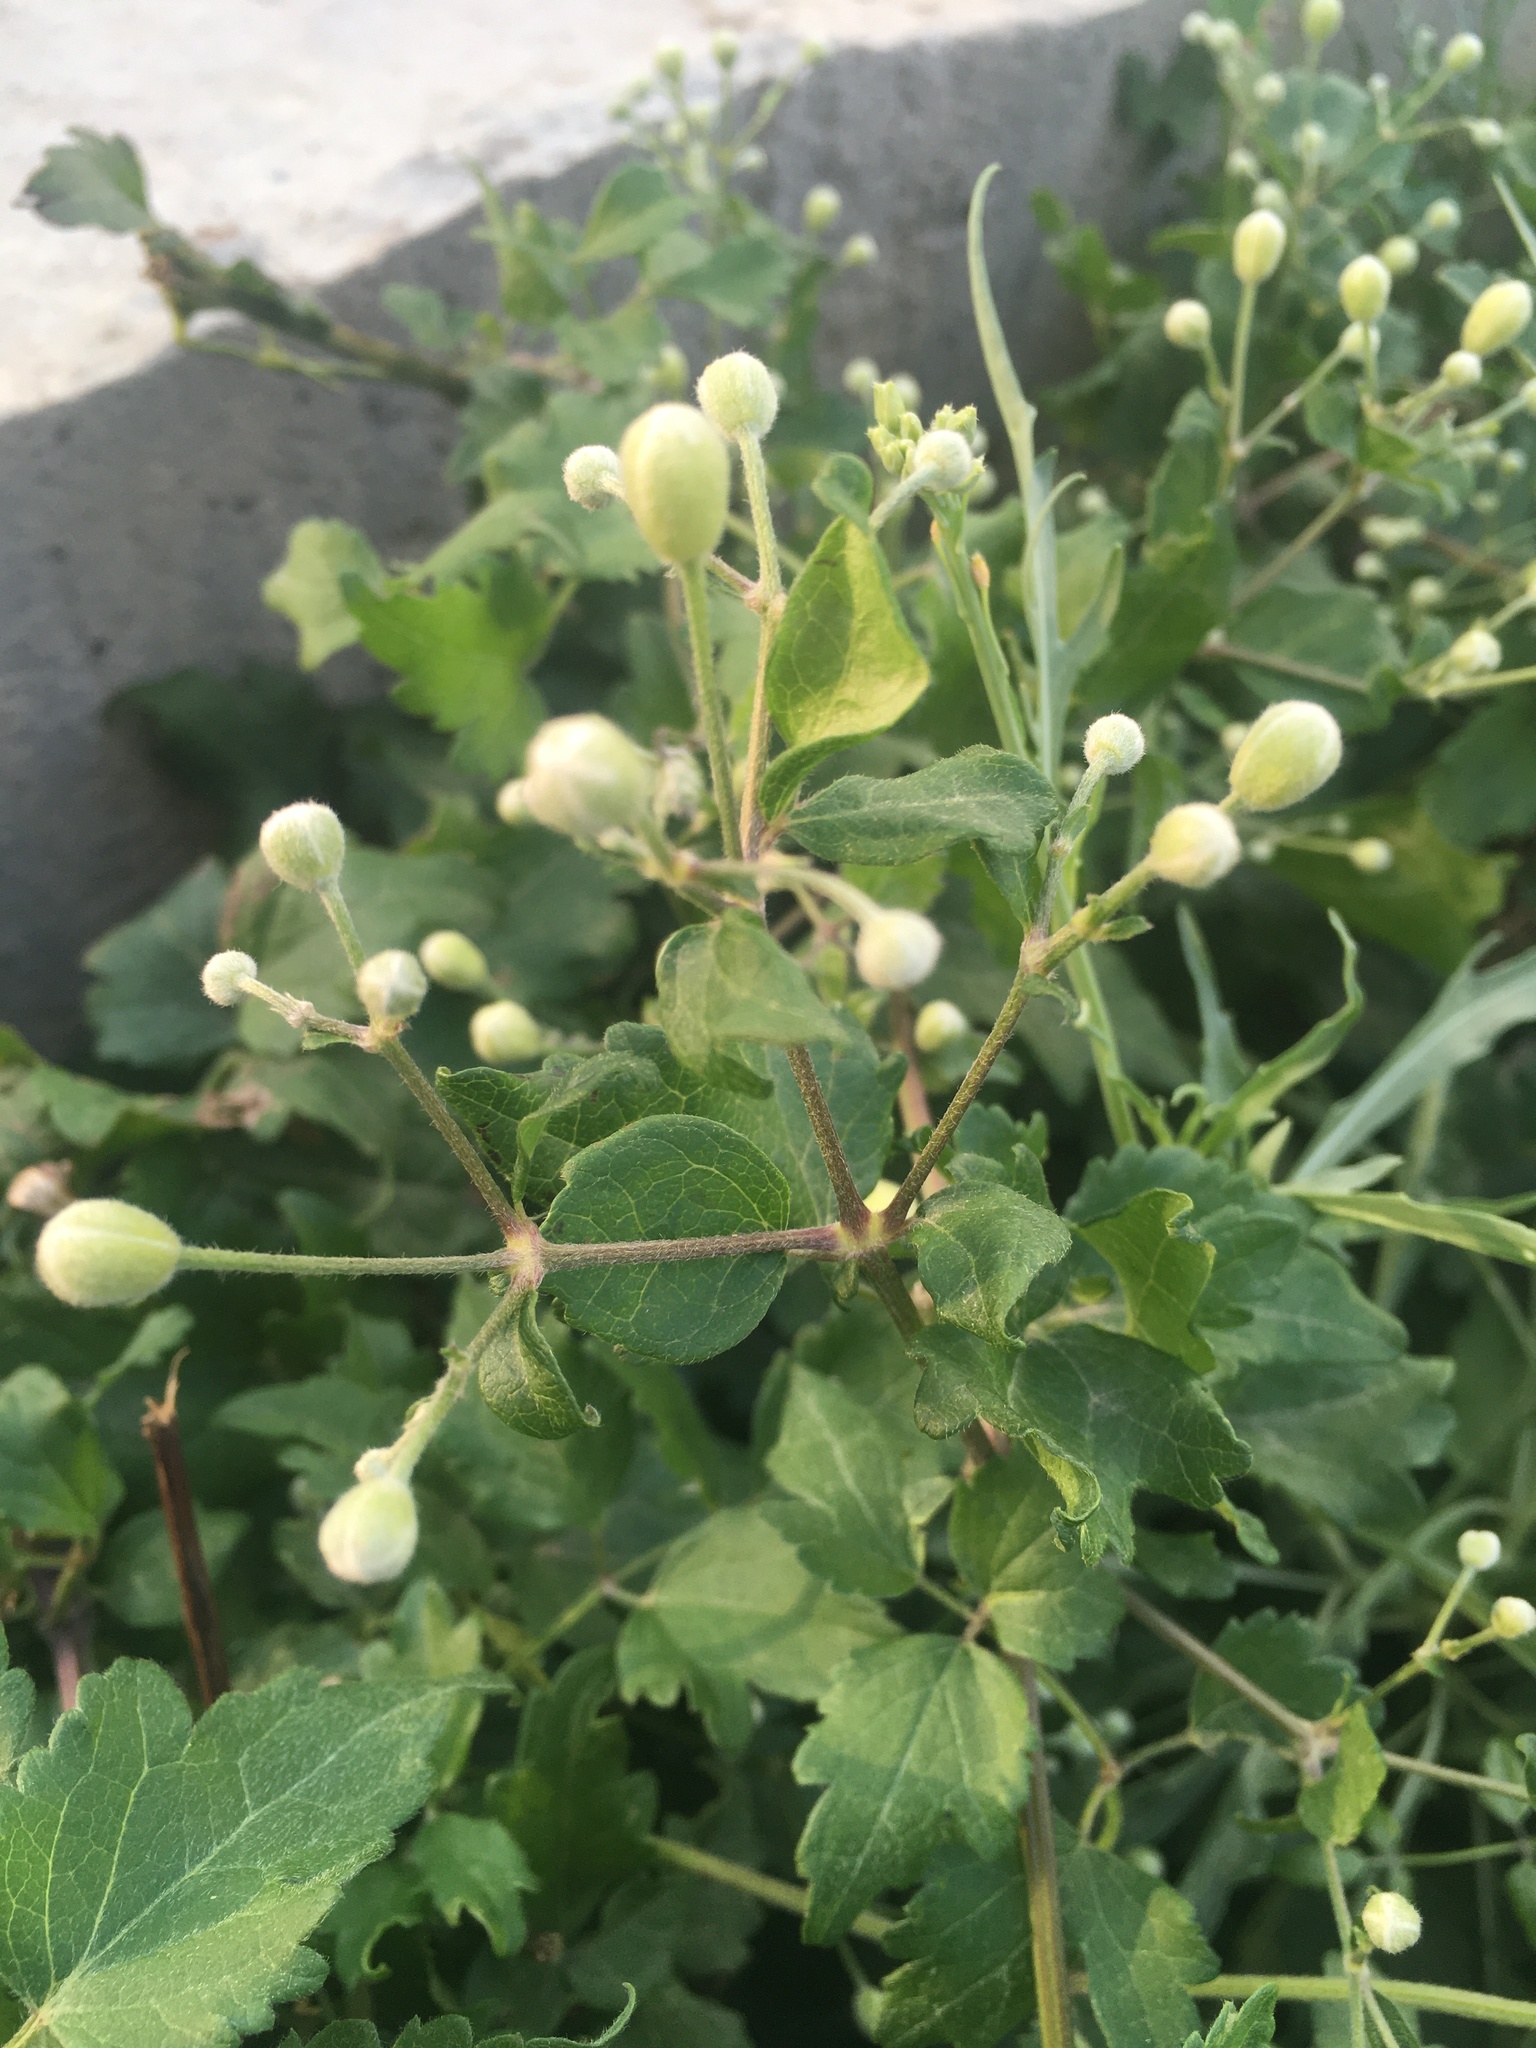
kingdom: Plantae
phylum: Tracheophyta
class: Magnoliopsida
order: Ranunculales
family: Ranunculaceae
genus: Clematis
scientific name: Clematis vitalba
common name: Evergreen clematis
